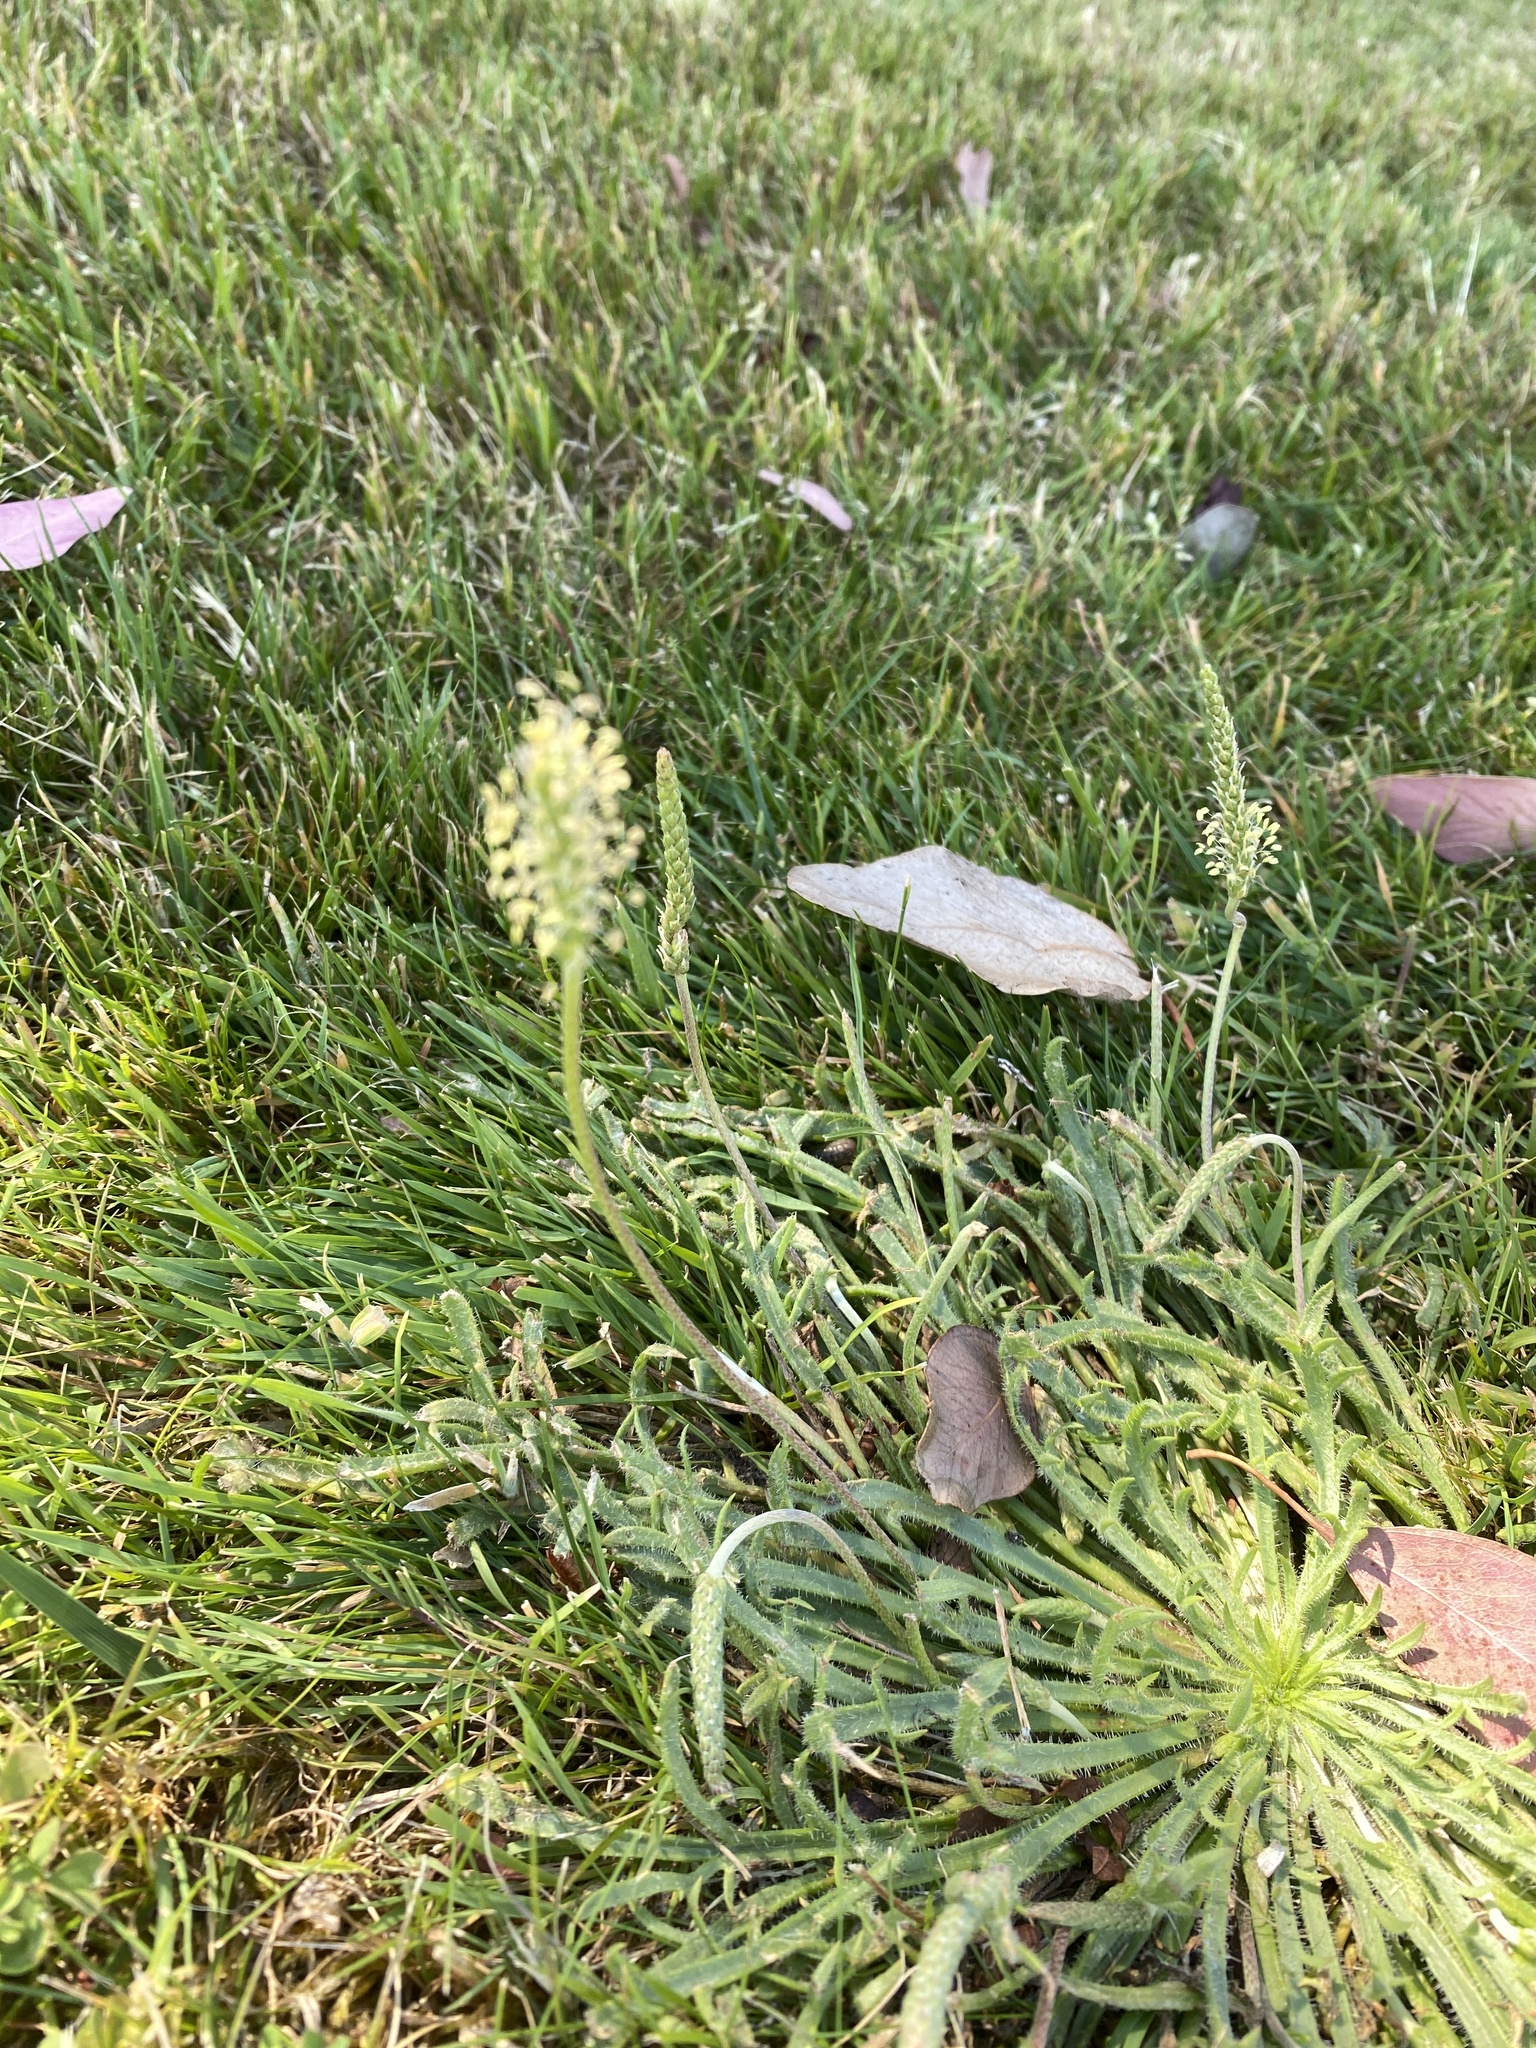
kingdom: Plantae
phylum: Tracheophyta
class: Magnoliopsida
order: Lamiales
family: Plantaginaceae
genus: Plantago
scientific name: Plantago coronopus
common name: Buck's-horn plantain
